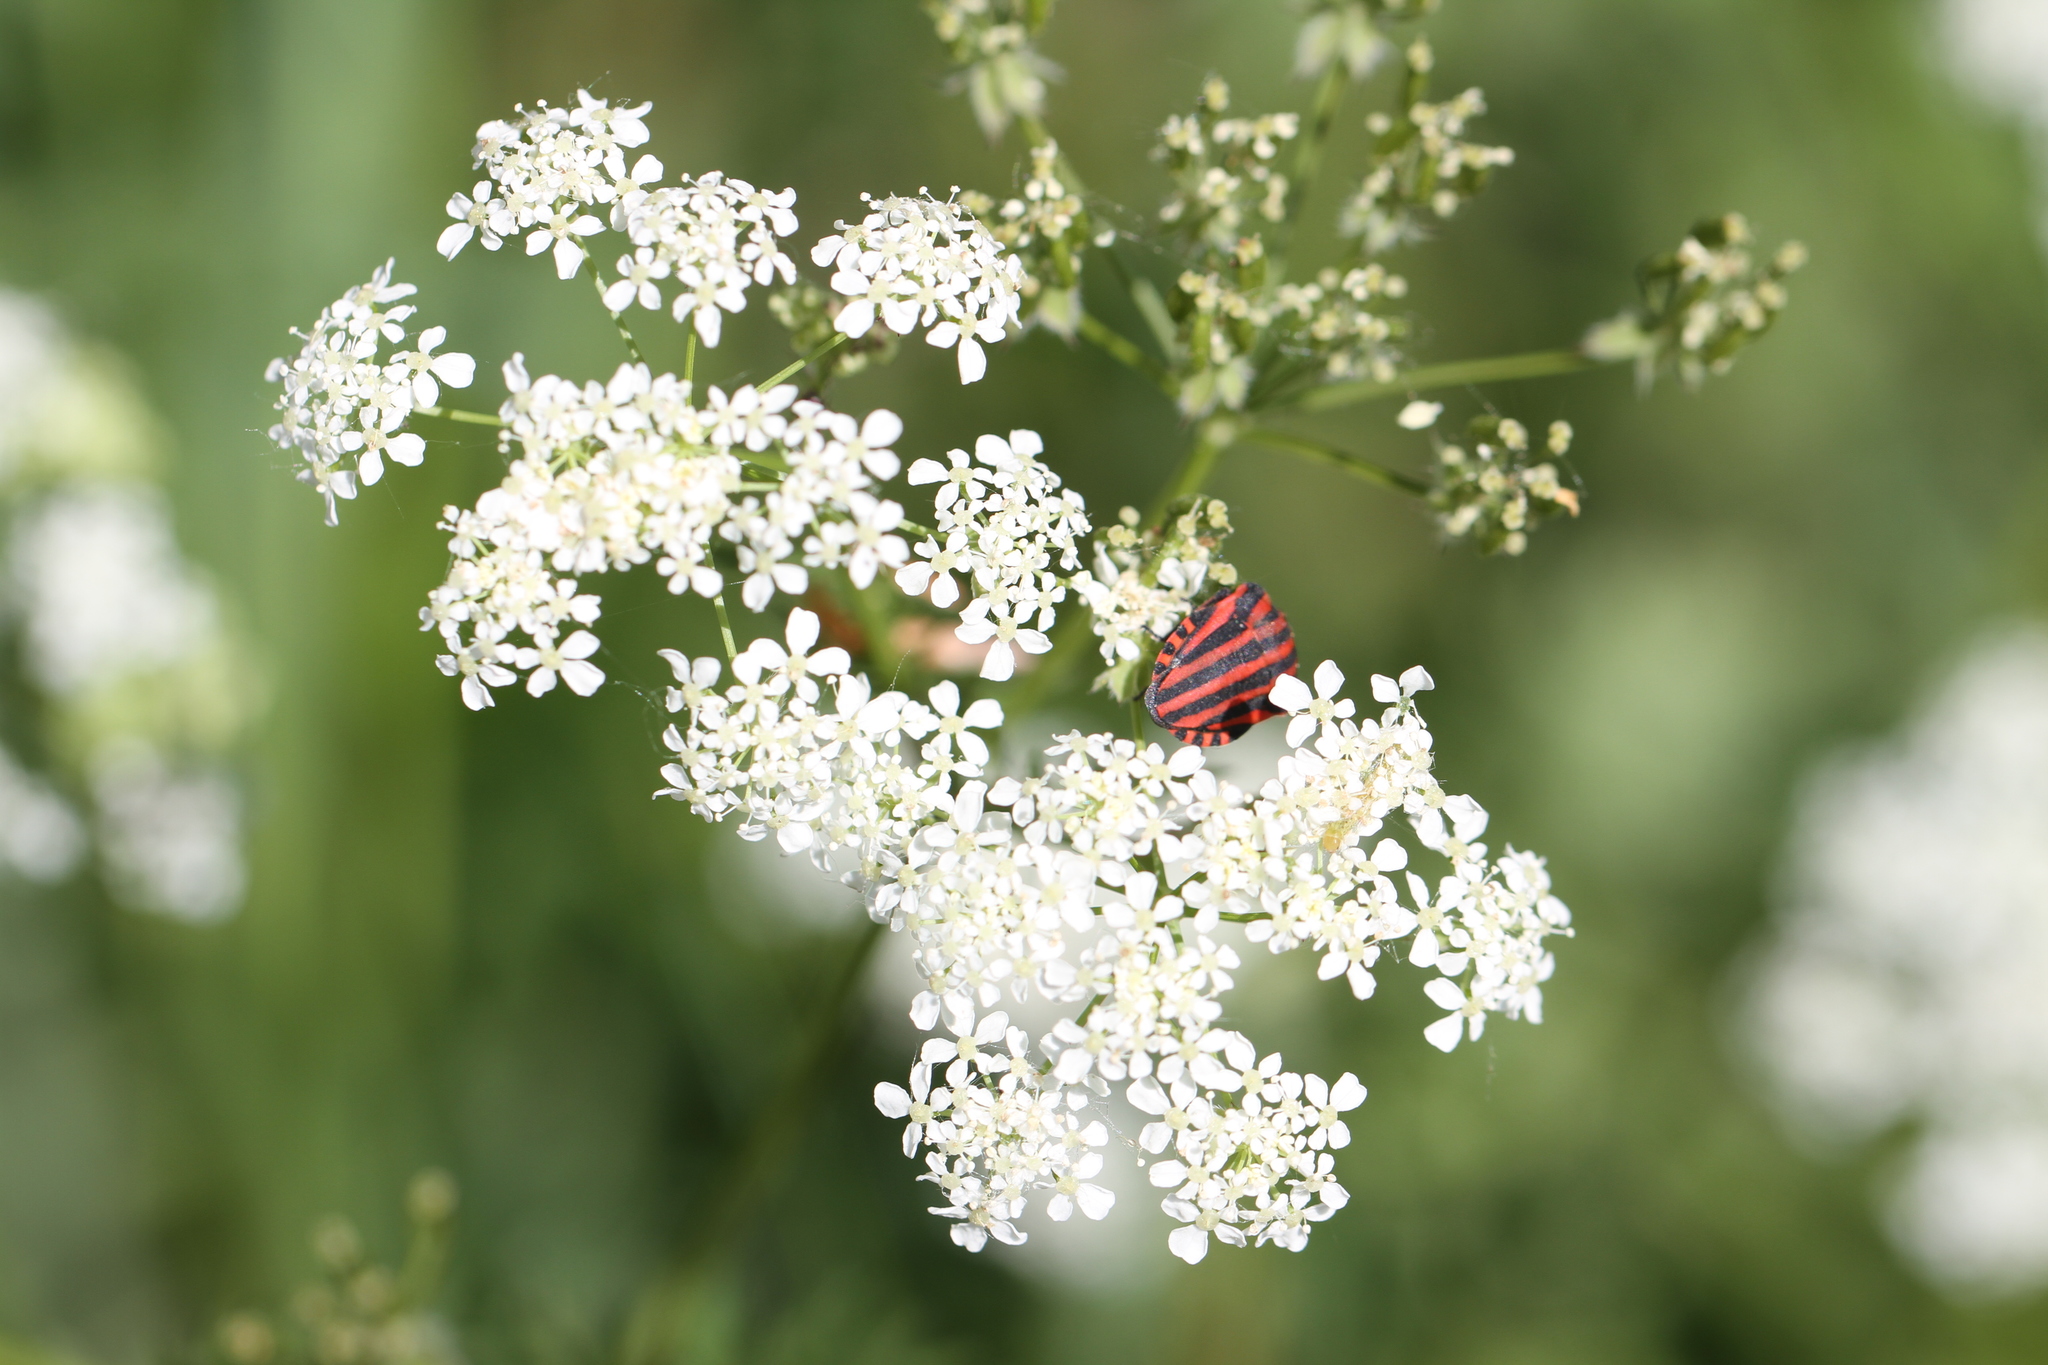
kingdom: Animalia
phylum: Arthropoda
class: Insecta
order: Hemiptera
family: Pentatomidae
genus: Graphosoma
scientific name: Graphosoma italicum
